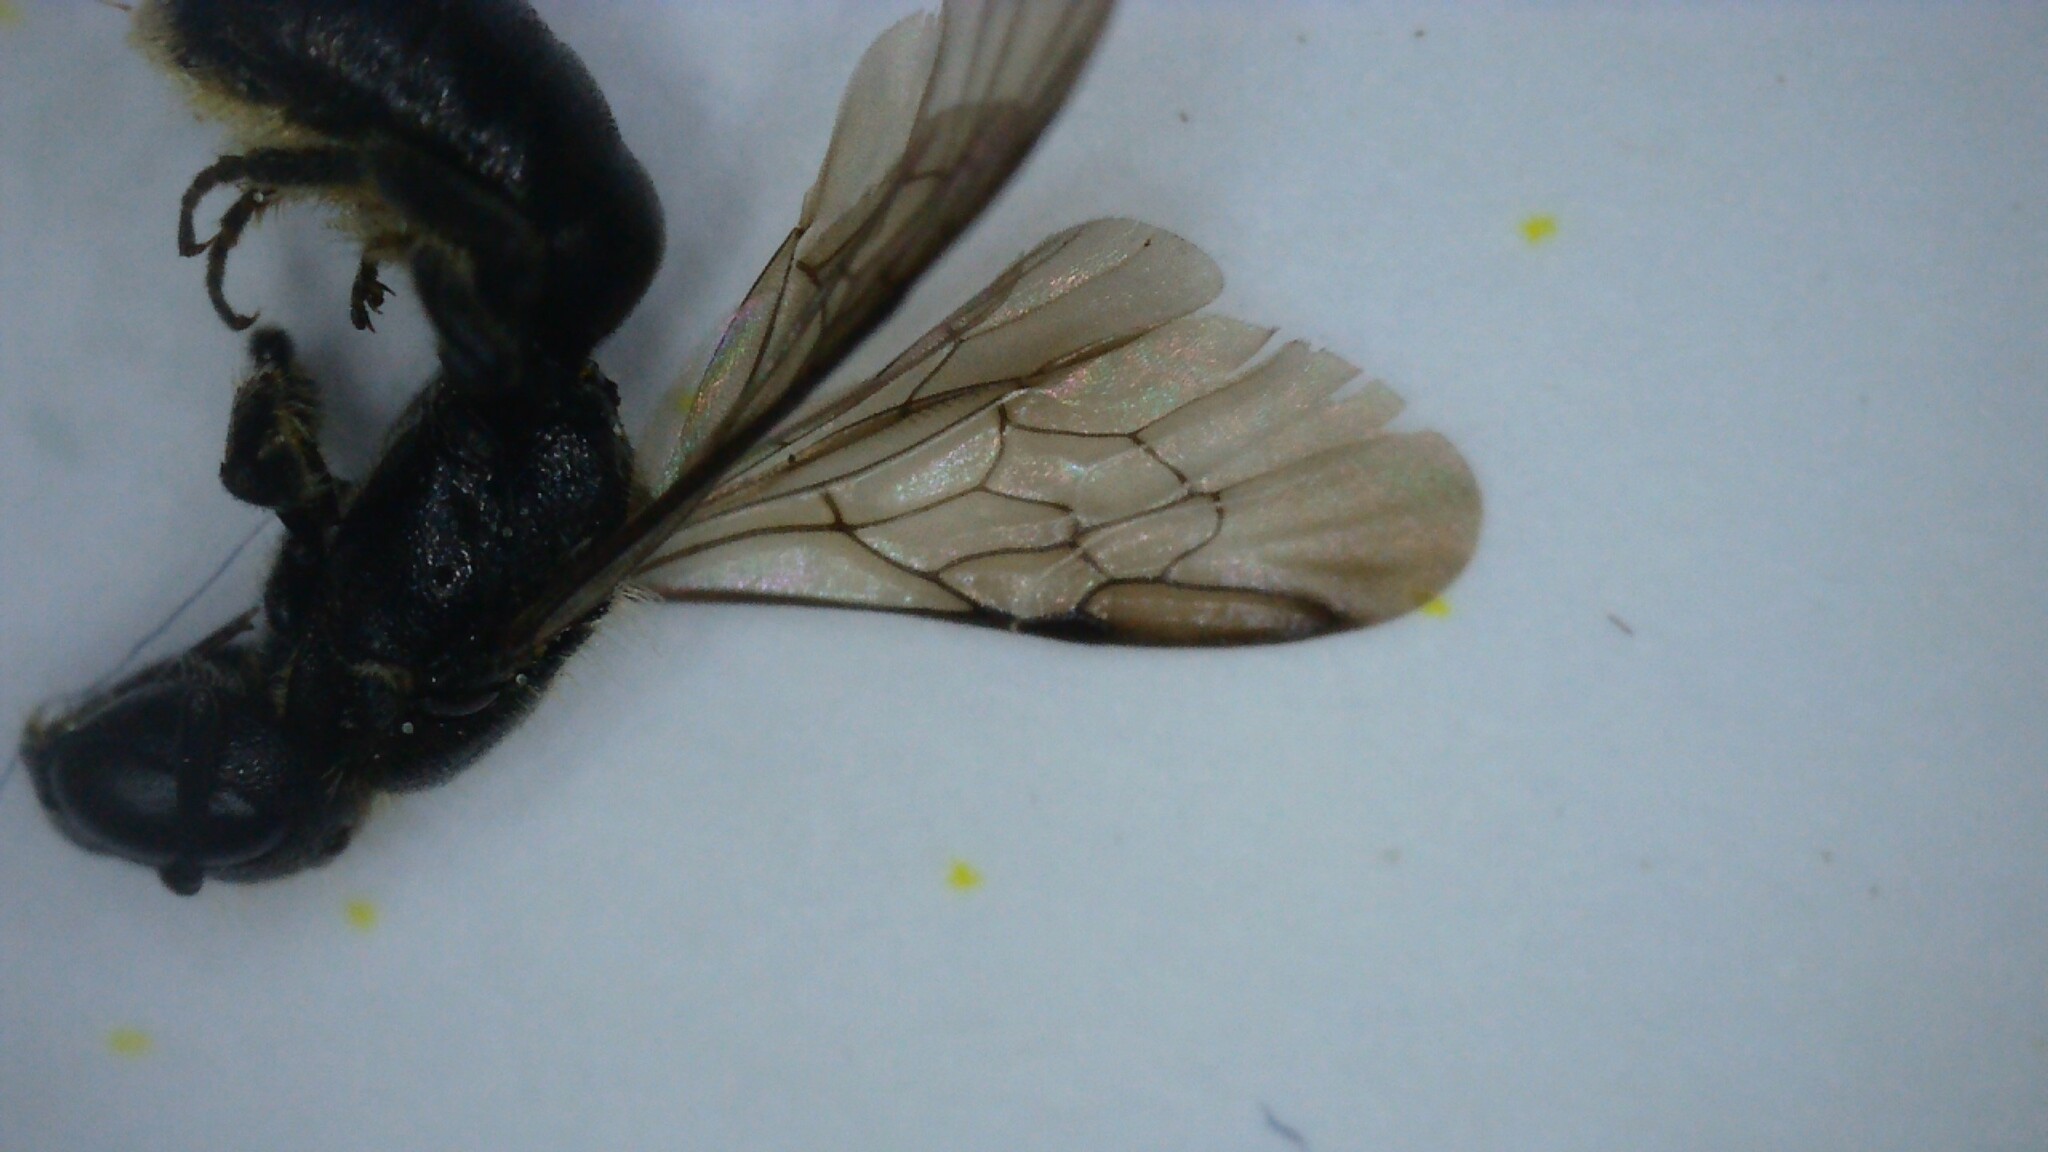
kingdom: Animalia
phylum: Arthropoda
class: Insecta
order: Hymenoptera
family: Megachilidae
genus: Chelostoma
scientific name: Chelostoma campanularum
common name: Small scissor bee
